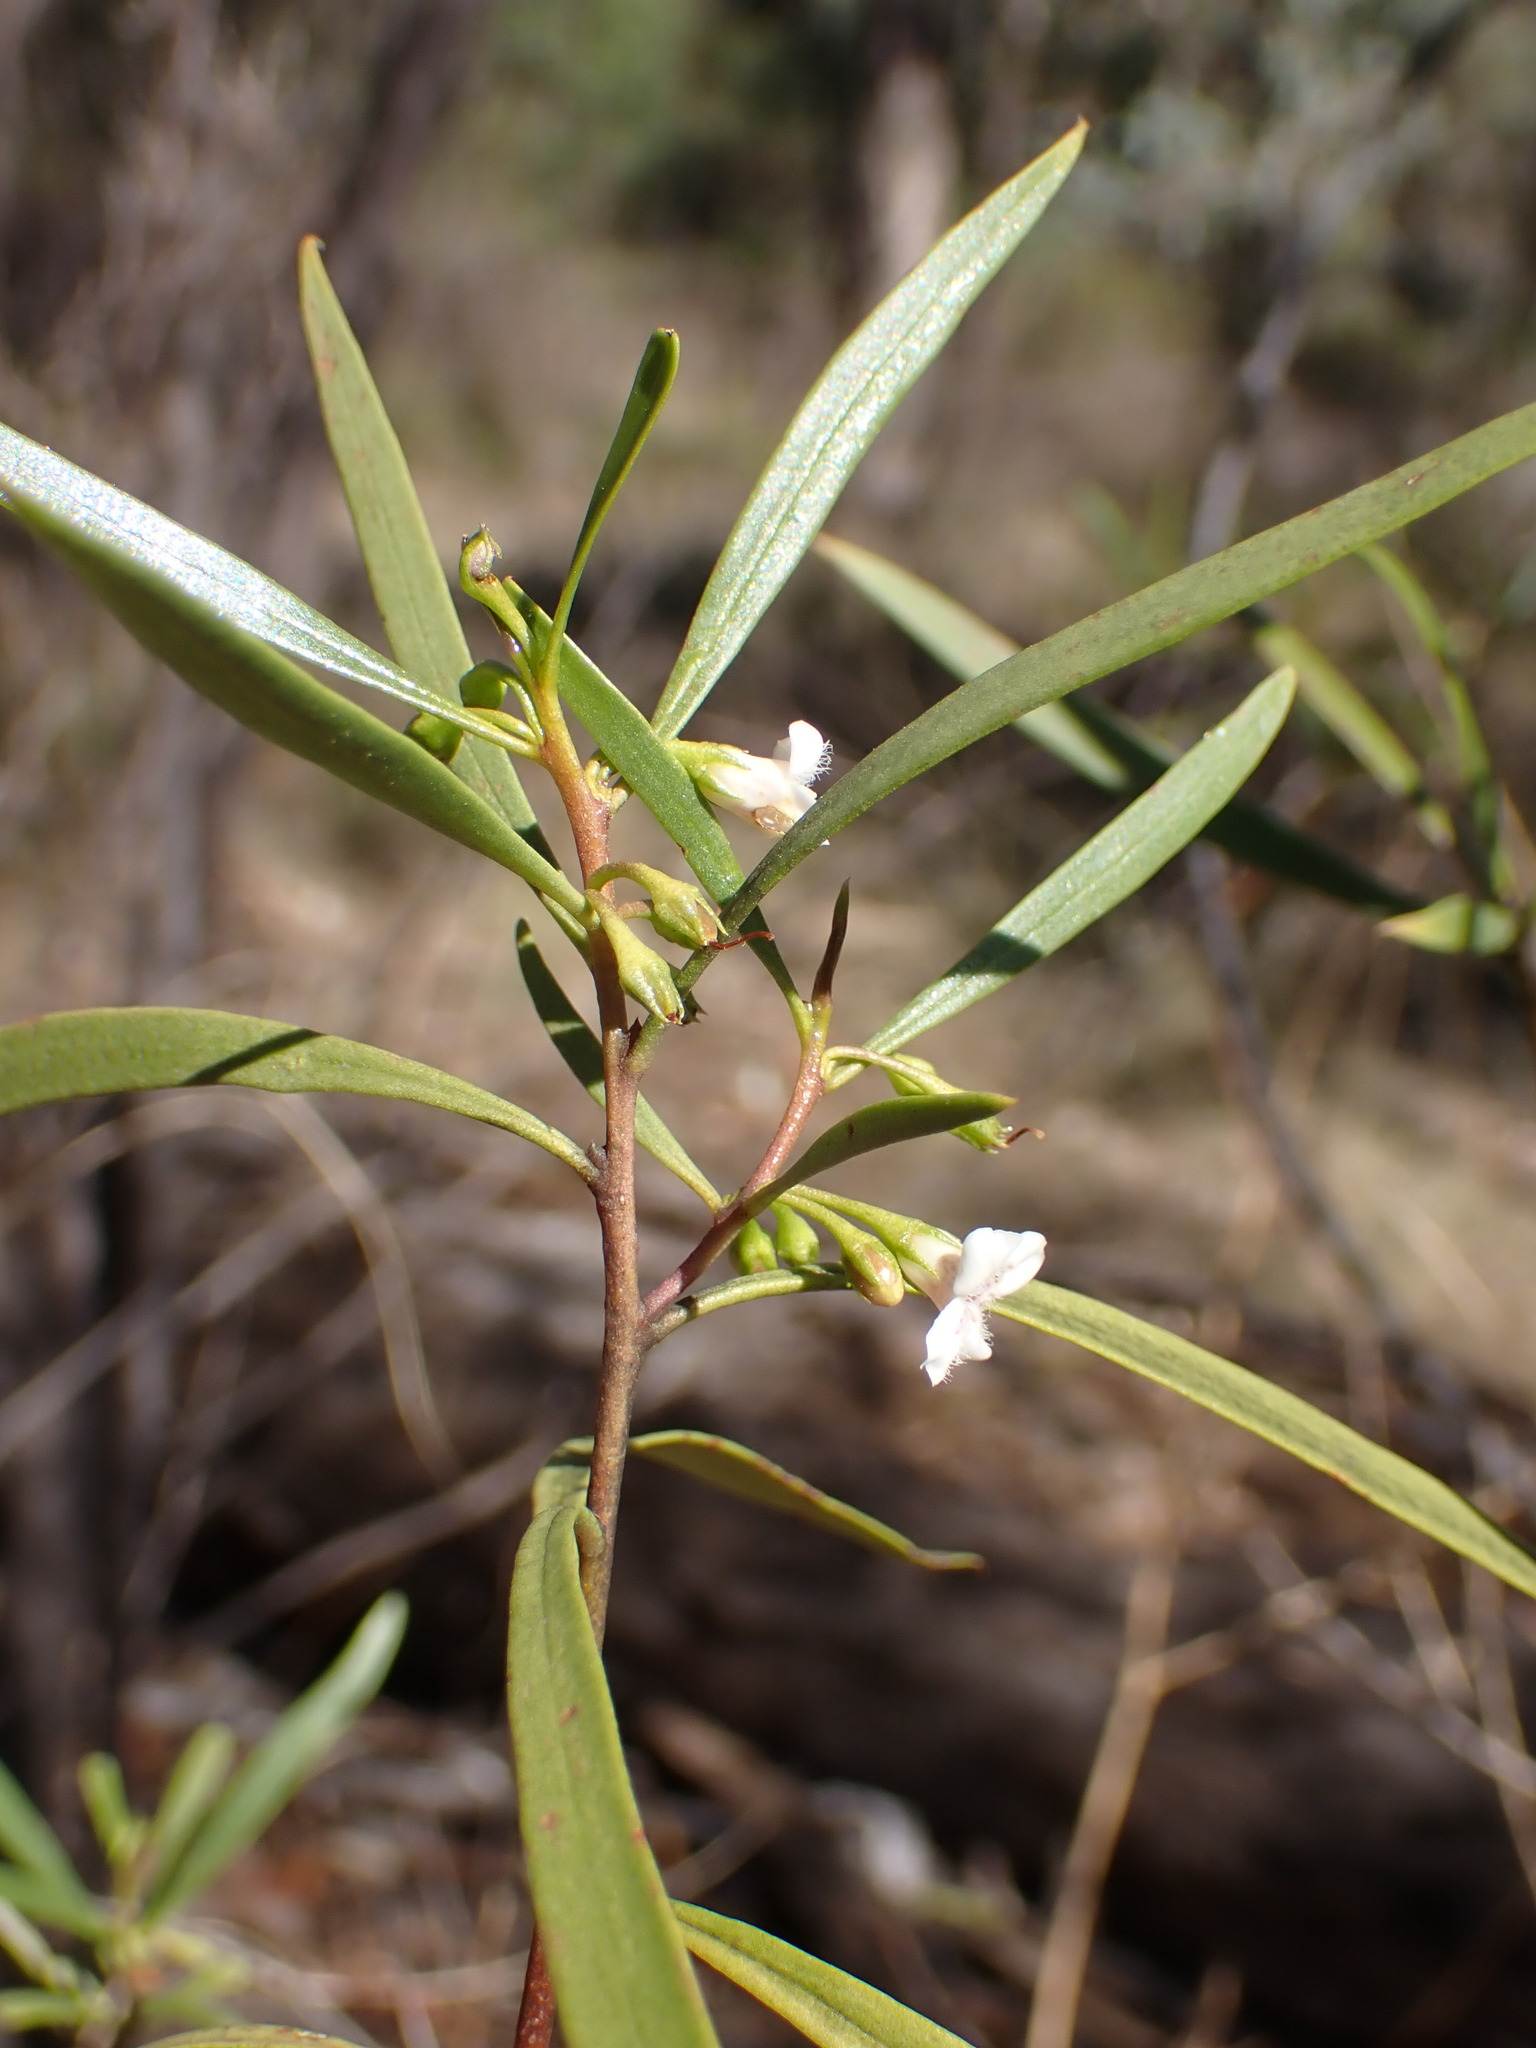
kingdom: Plantae
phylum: Tracheophyta
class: Magnoliopsida
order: Lamiales
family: Scrophulariaceae
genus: Myoporum
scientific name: Myoporum montanum
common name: Waterbush
